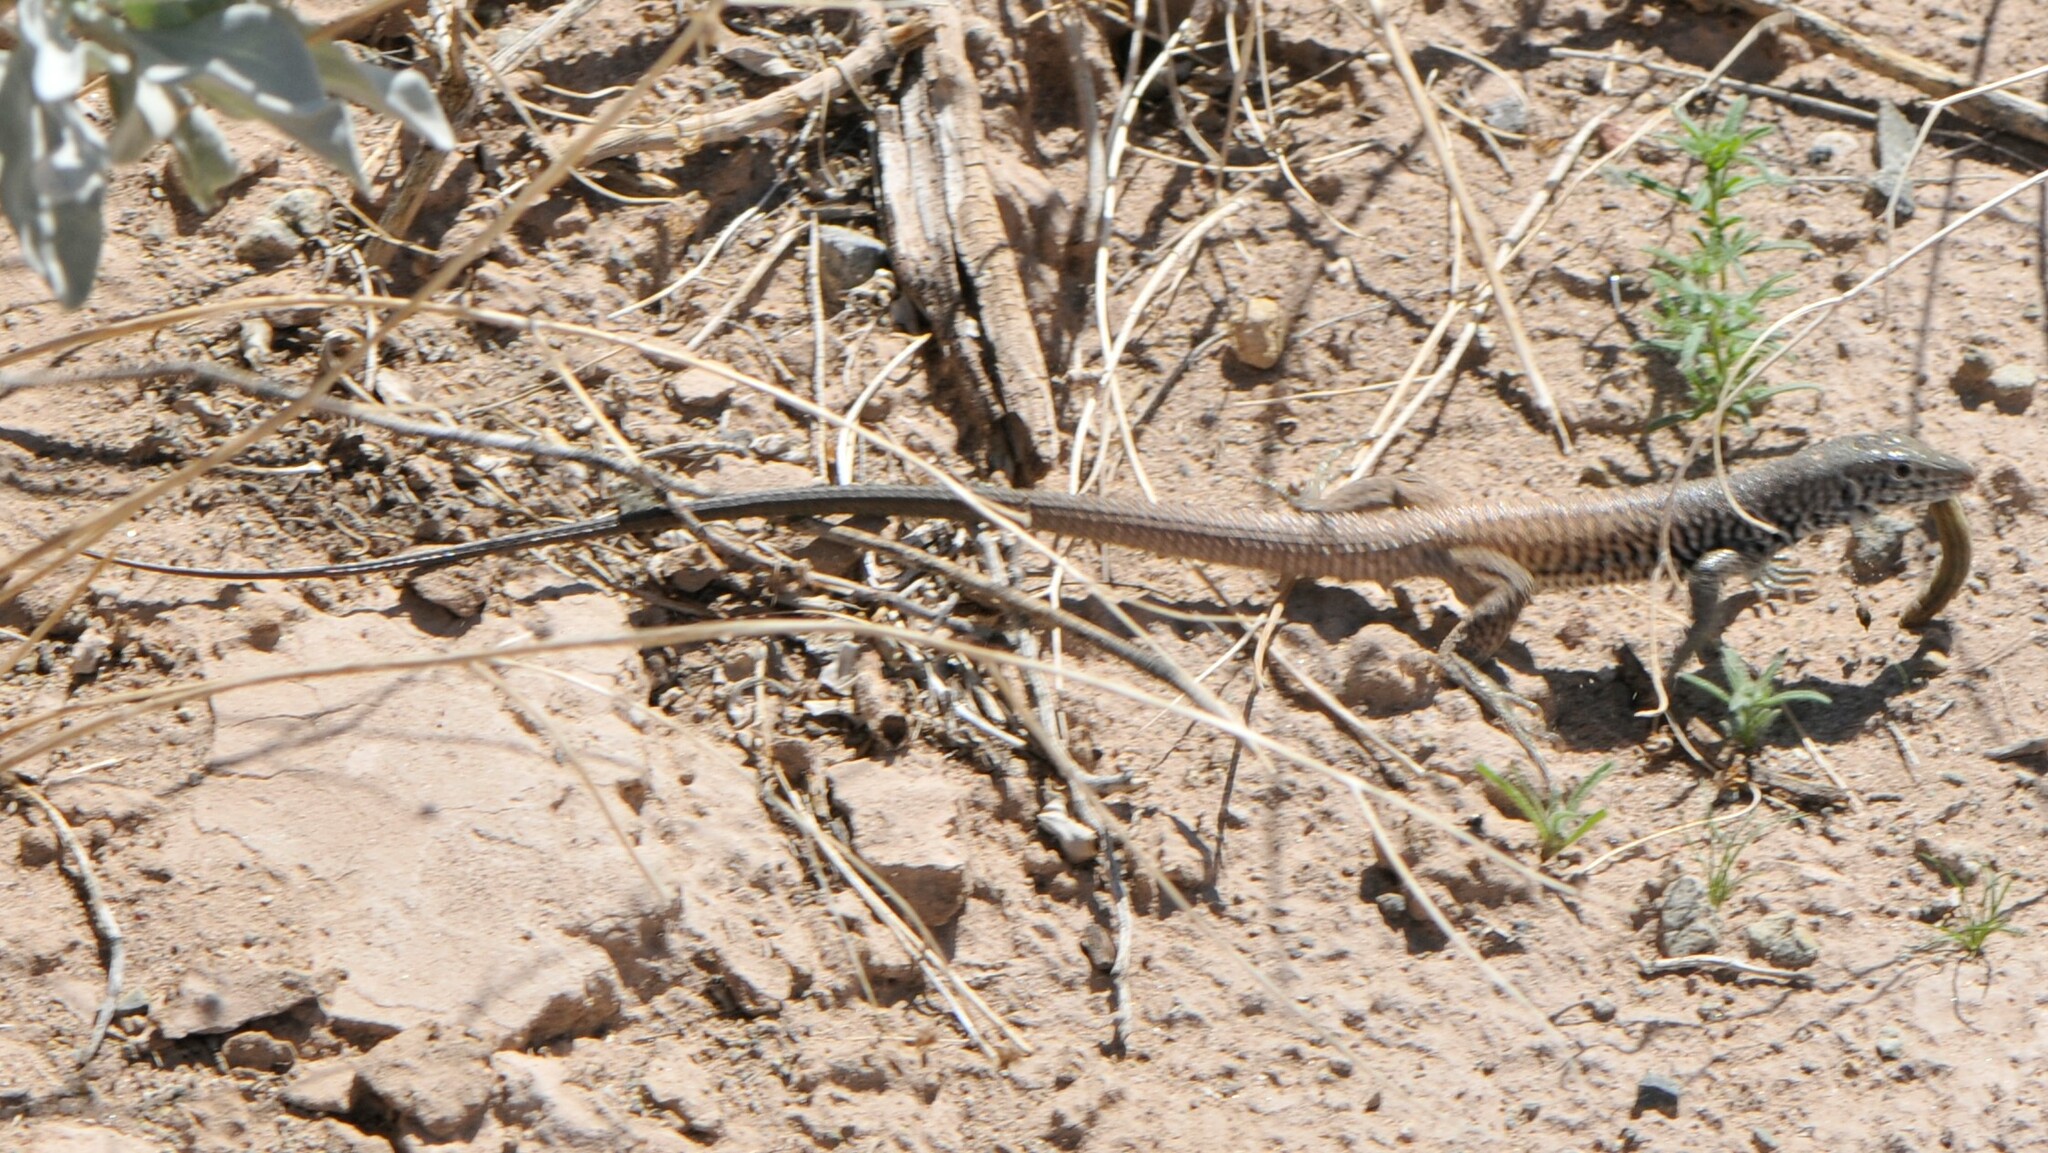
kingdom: Animalia
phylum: Chordata
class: Squamata
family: Teiidae
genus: Aspidoscelis
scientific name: Aspidoscelis tigris
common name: Tiger whiptail
